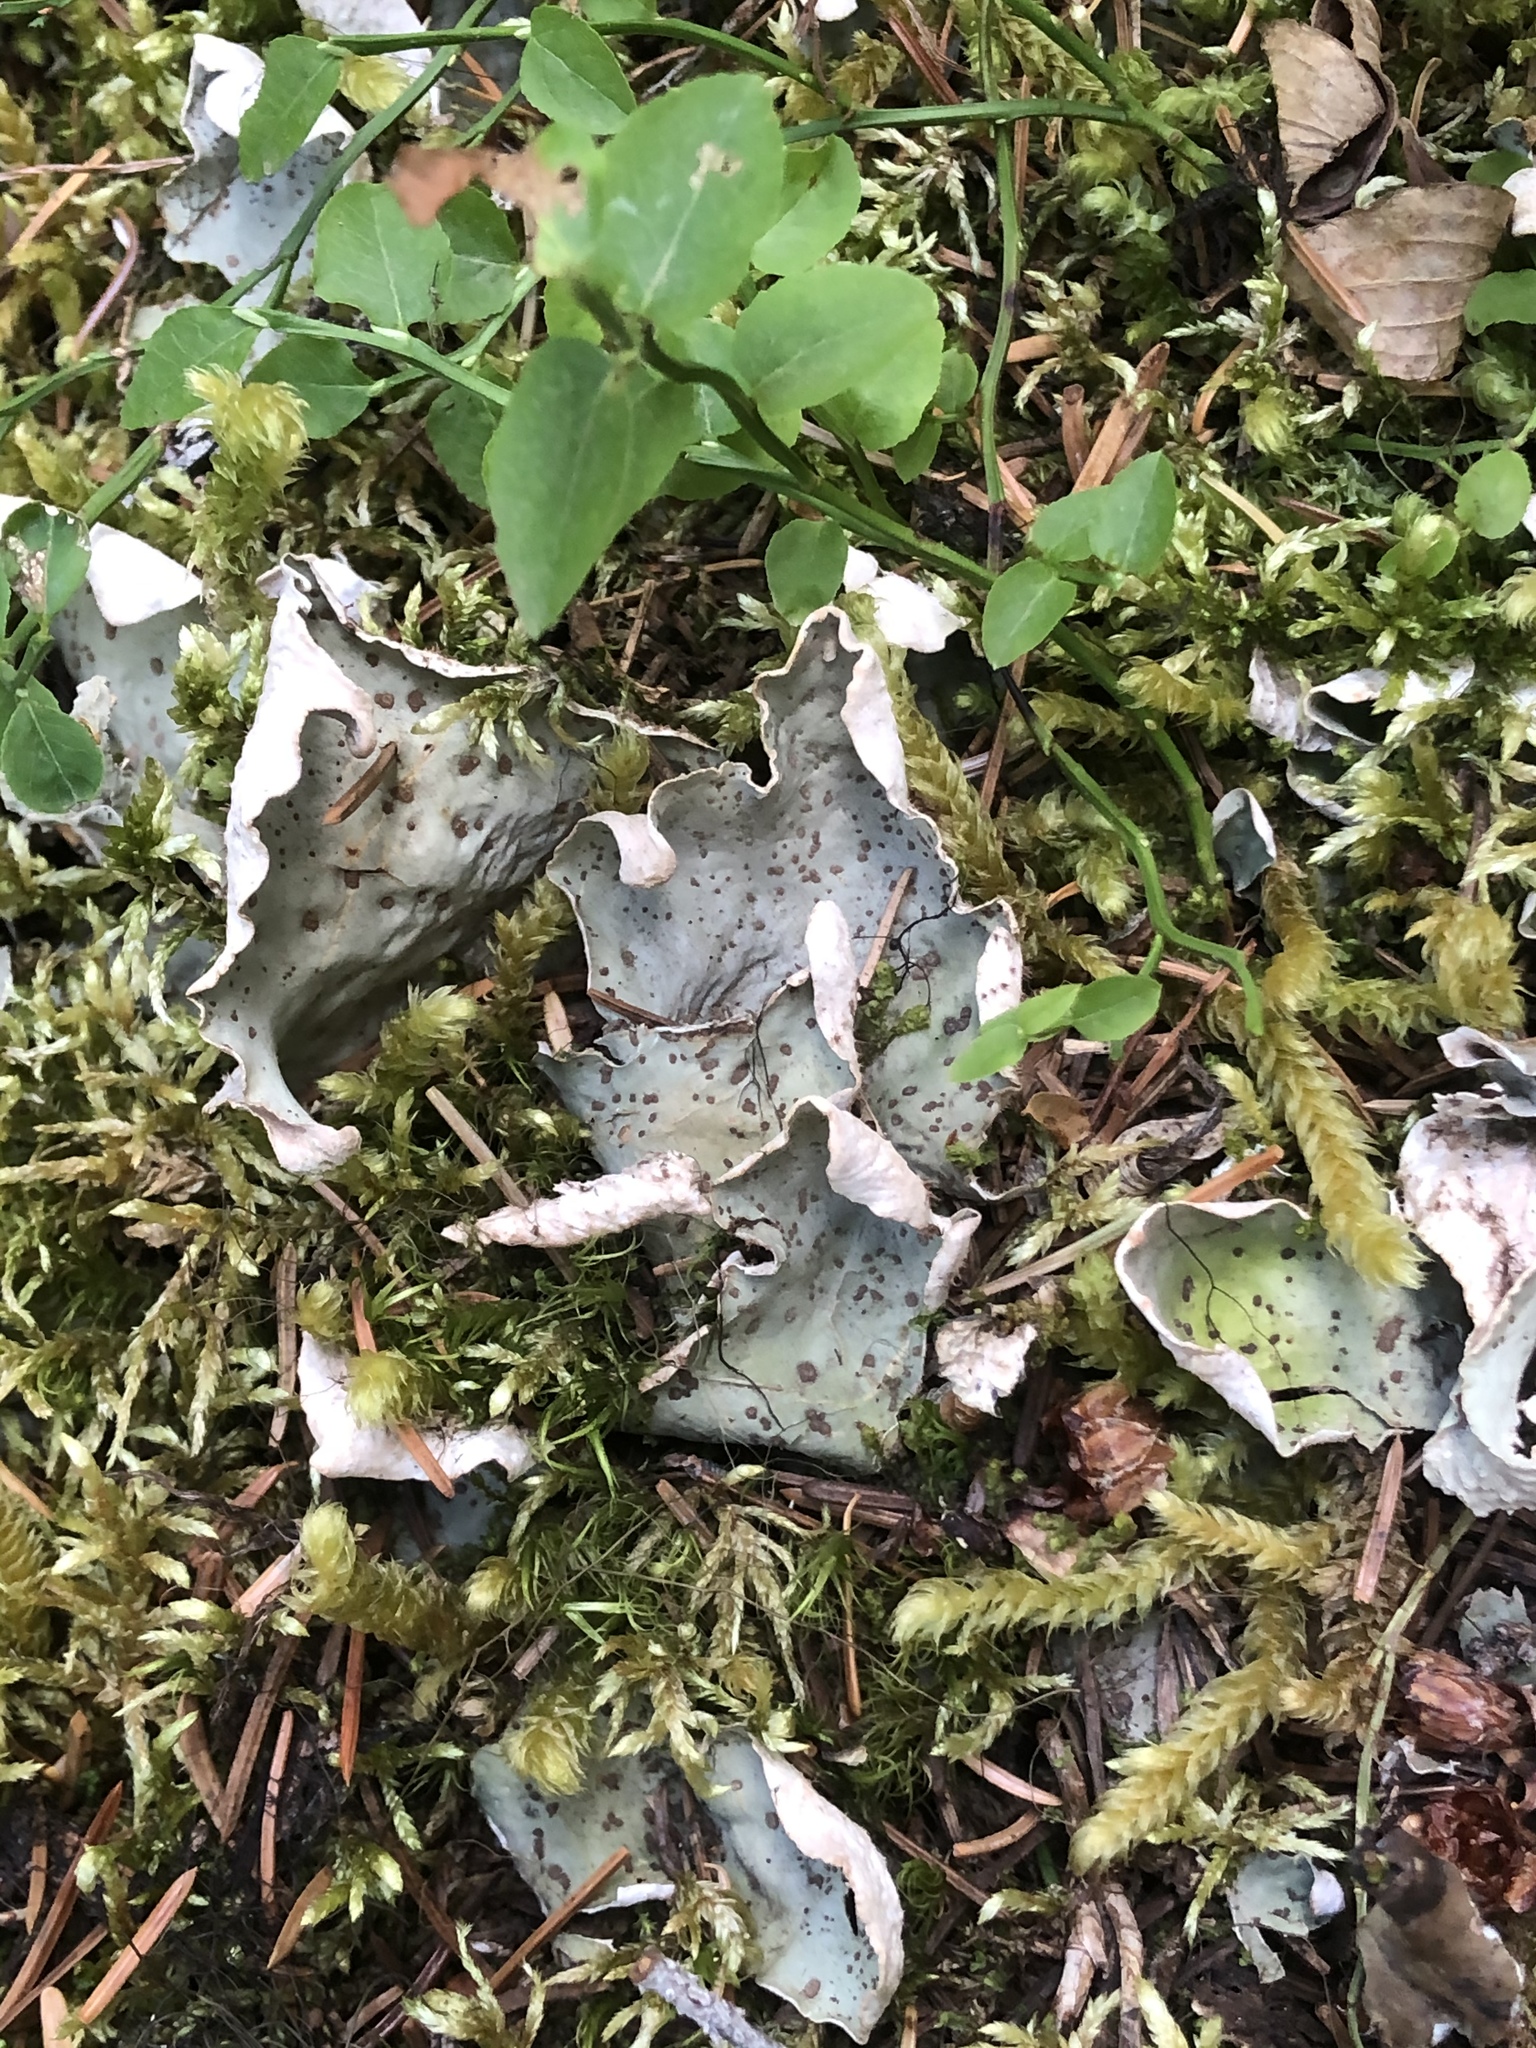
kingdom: Fungi
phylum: Ascomycota
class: Lecanoromycetes
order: Peltigerales
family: Peltigeraceae
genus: Peltigera
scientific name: Peltigera aphthosa
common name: Common freckle pelt lichen
